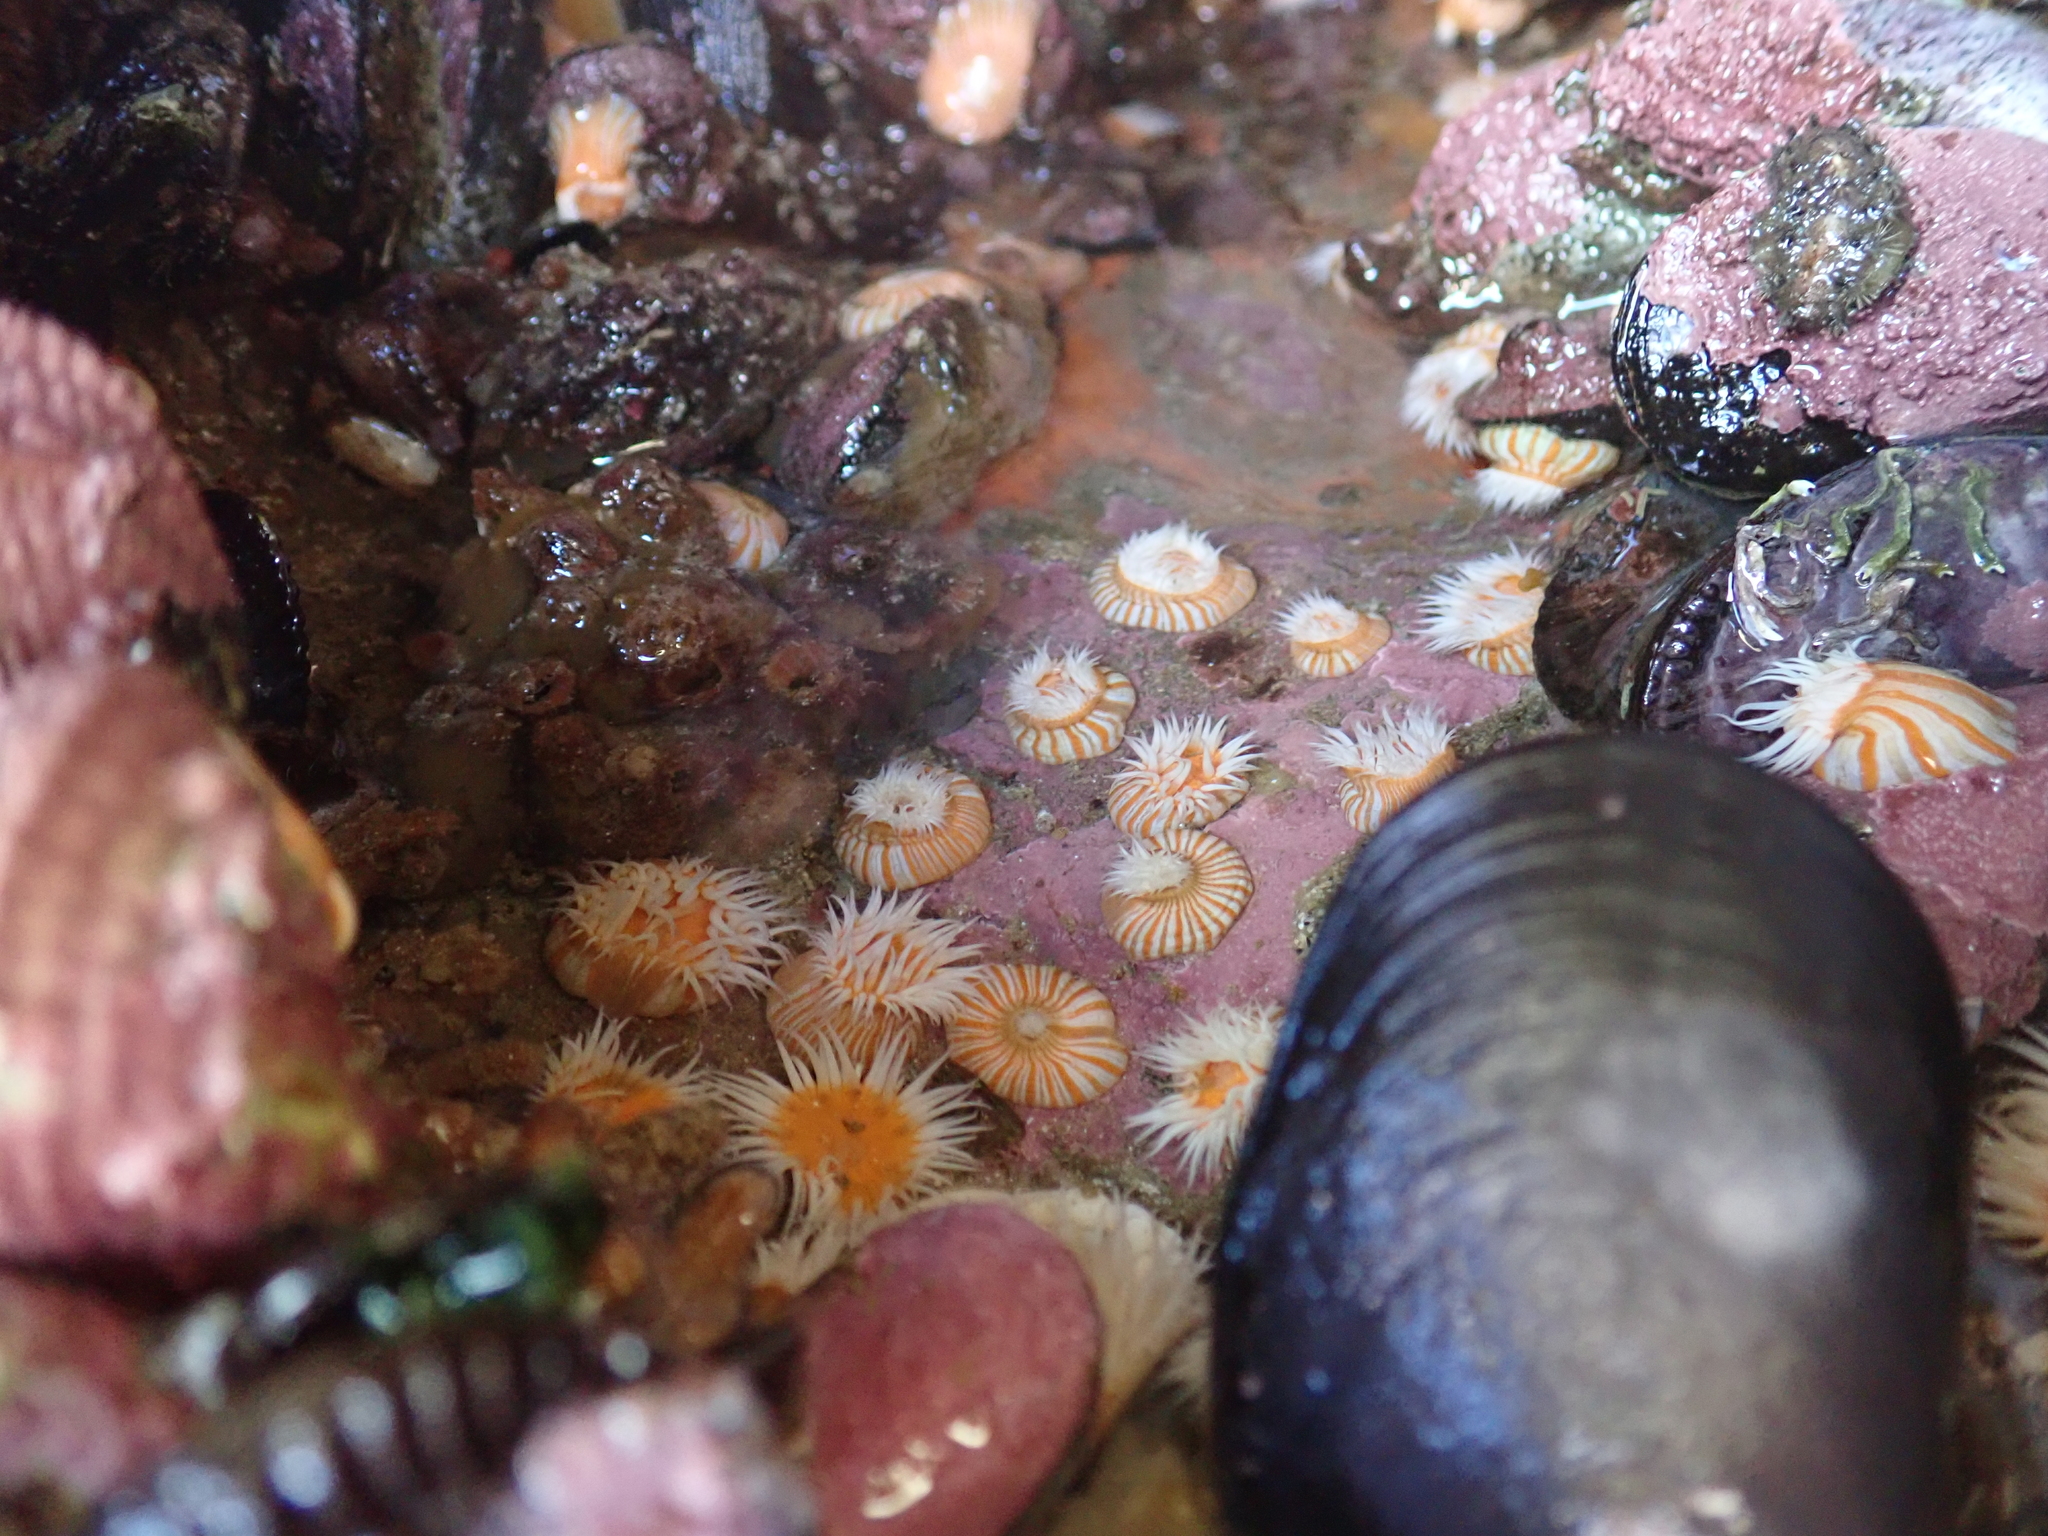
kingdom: Animalia
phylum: Cnidaria
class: Anthozoa
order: Actiniaria
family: Sagartiidae
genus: Anthothoe
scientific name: Anthothoe albocincta
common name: Orange striped anemone
